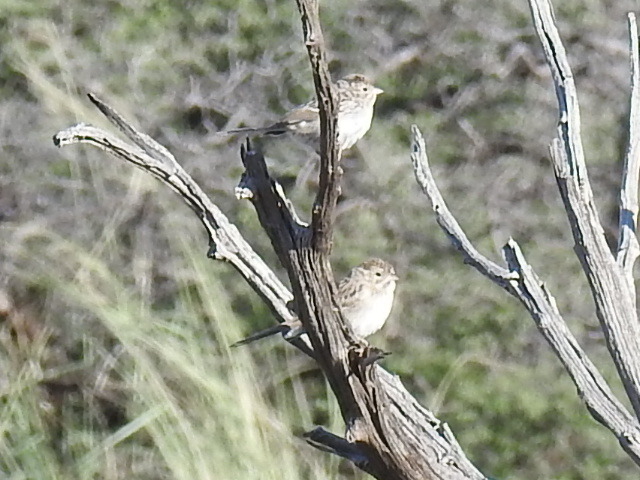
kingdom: Animalia
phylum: Chordata
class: Aves
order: Passeriformes
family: Passerellidae
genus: Spizella
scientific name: Spizella breweri
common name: Brewer's sparrow
